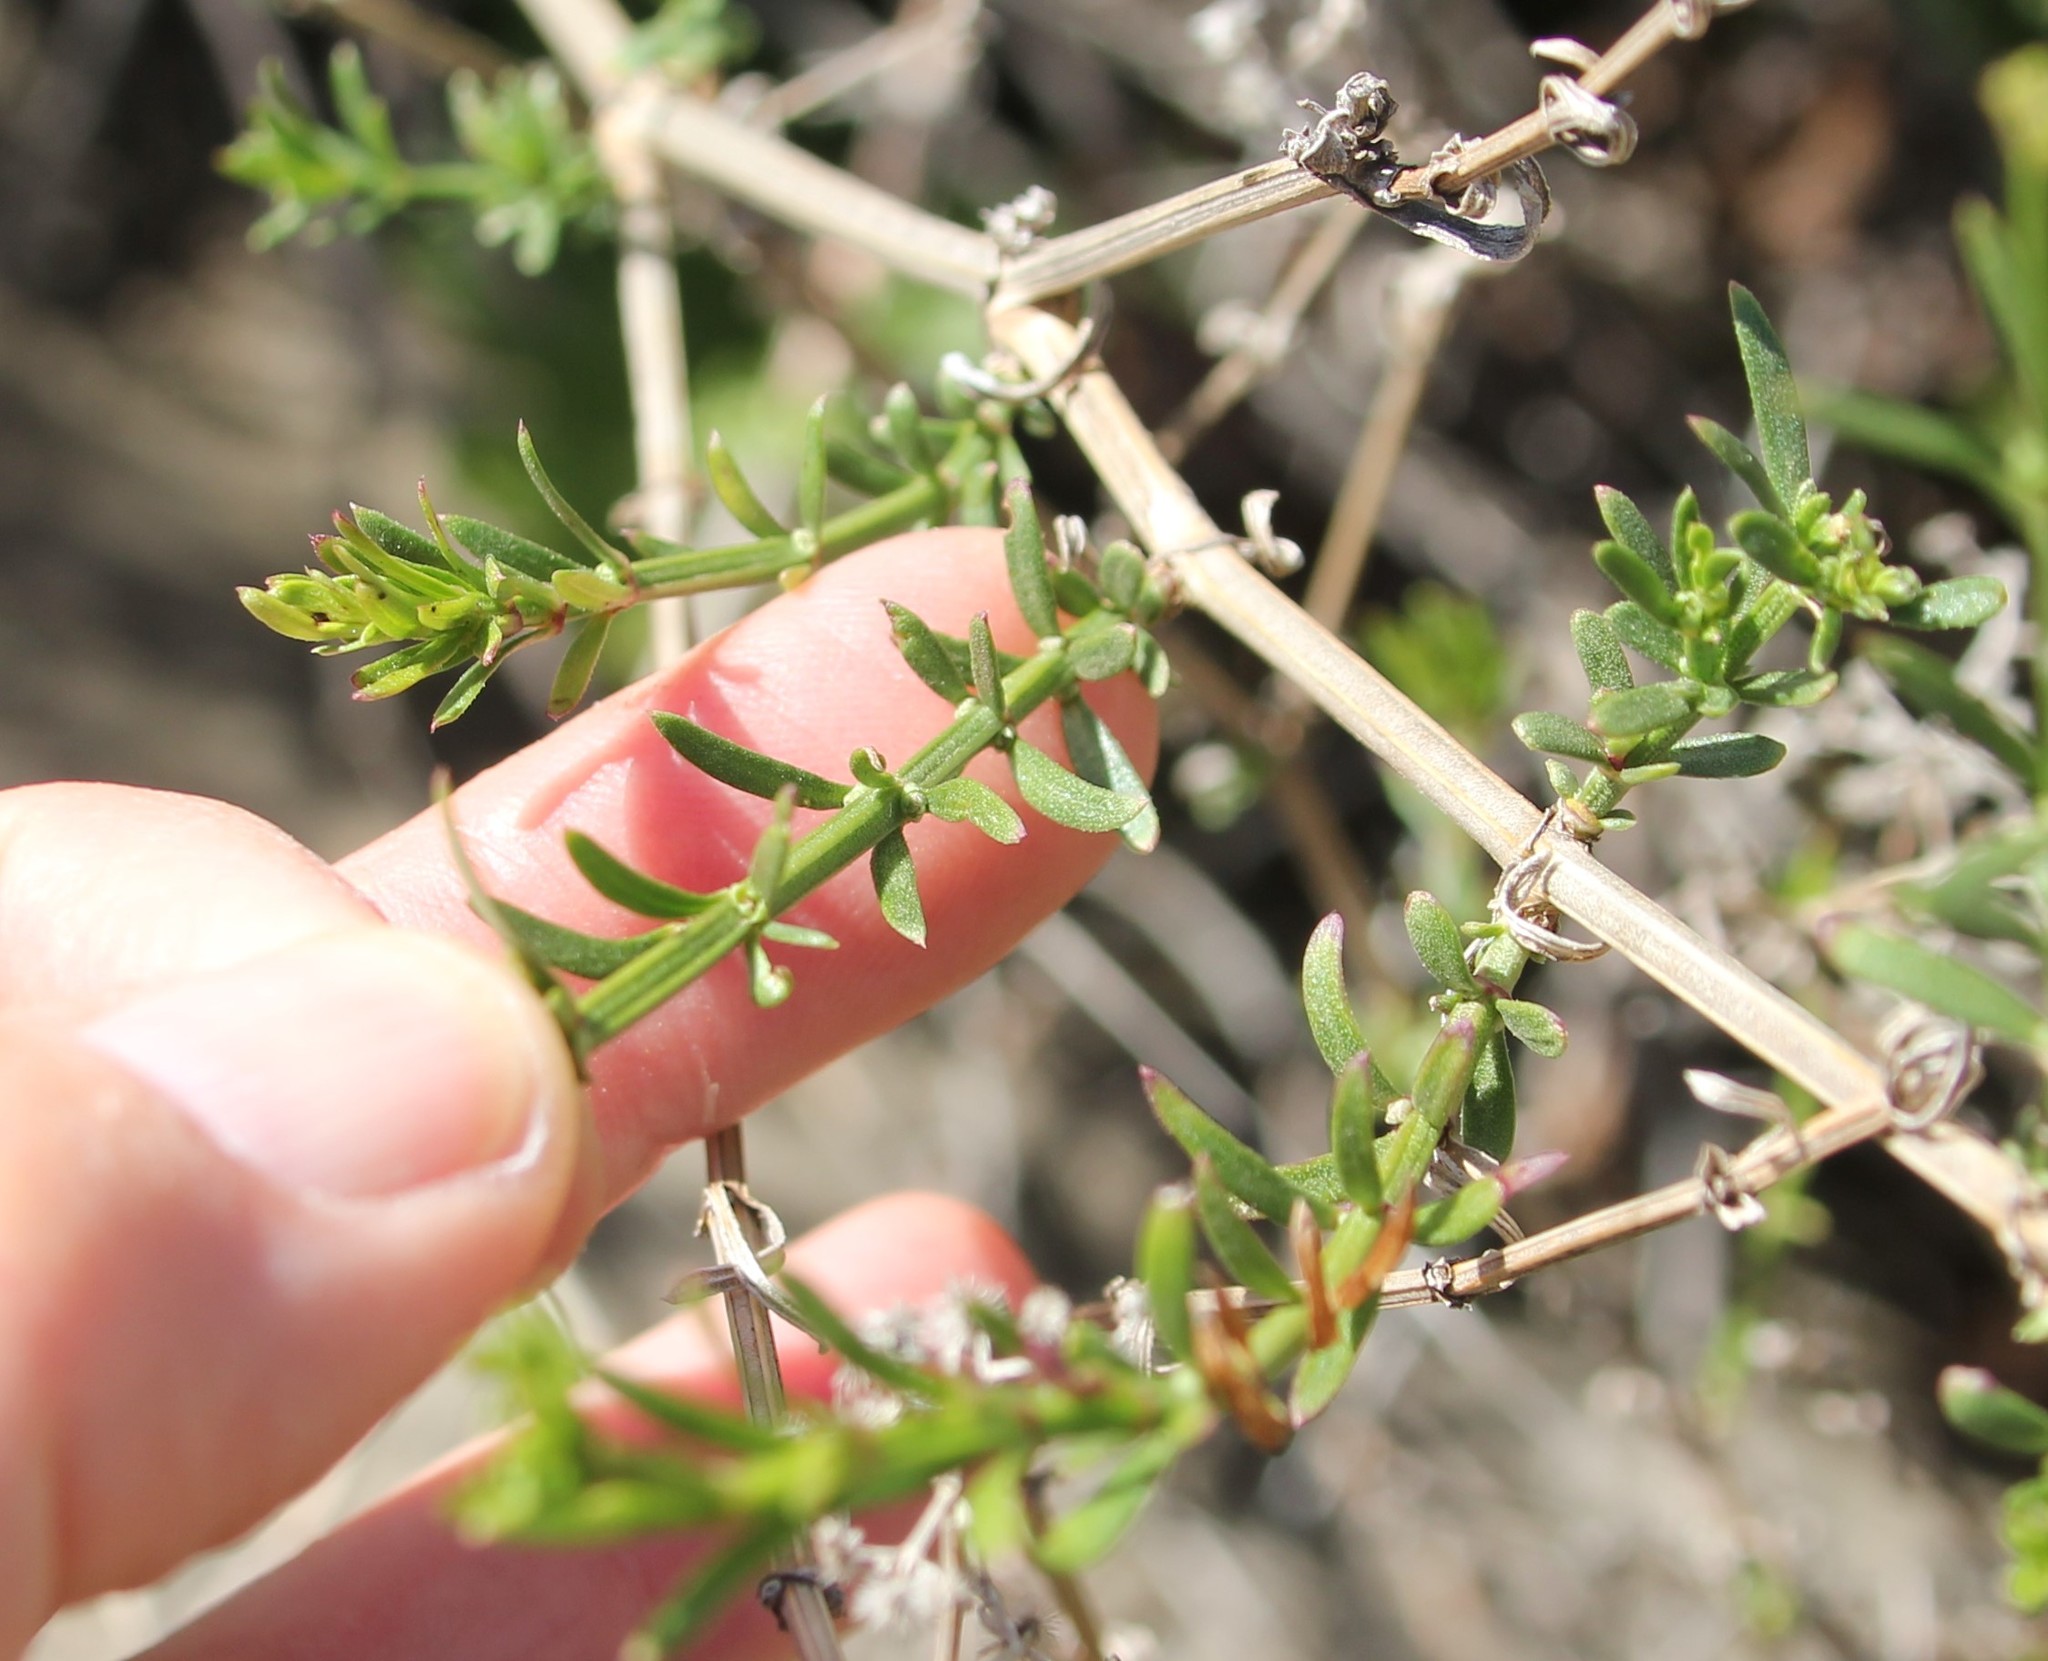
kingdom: Plantae
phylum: Tracheophyta
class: Magnoliopsida
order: Gentianales
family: Rubiaceae
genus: Galium
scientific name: Galium angustifolium
